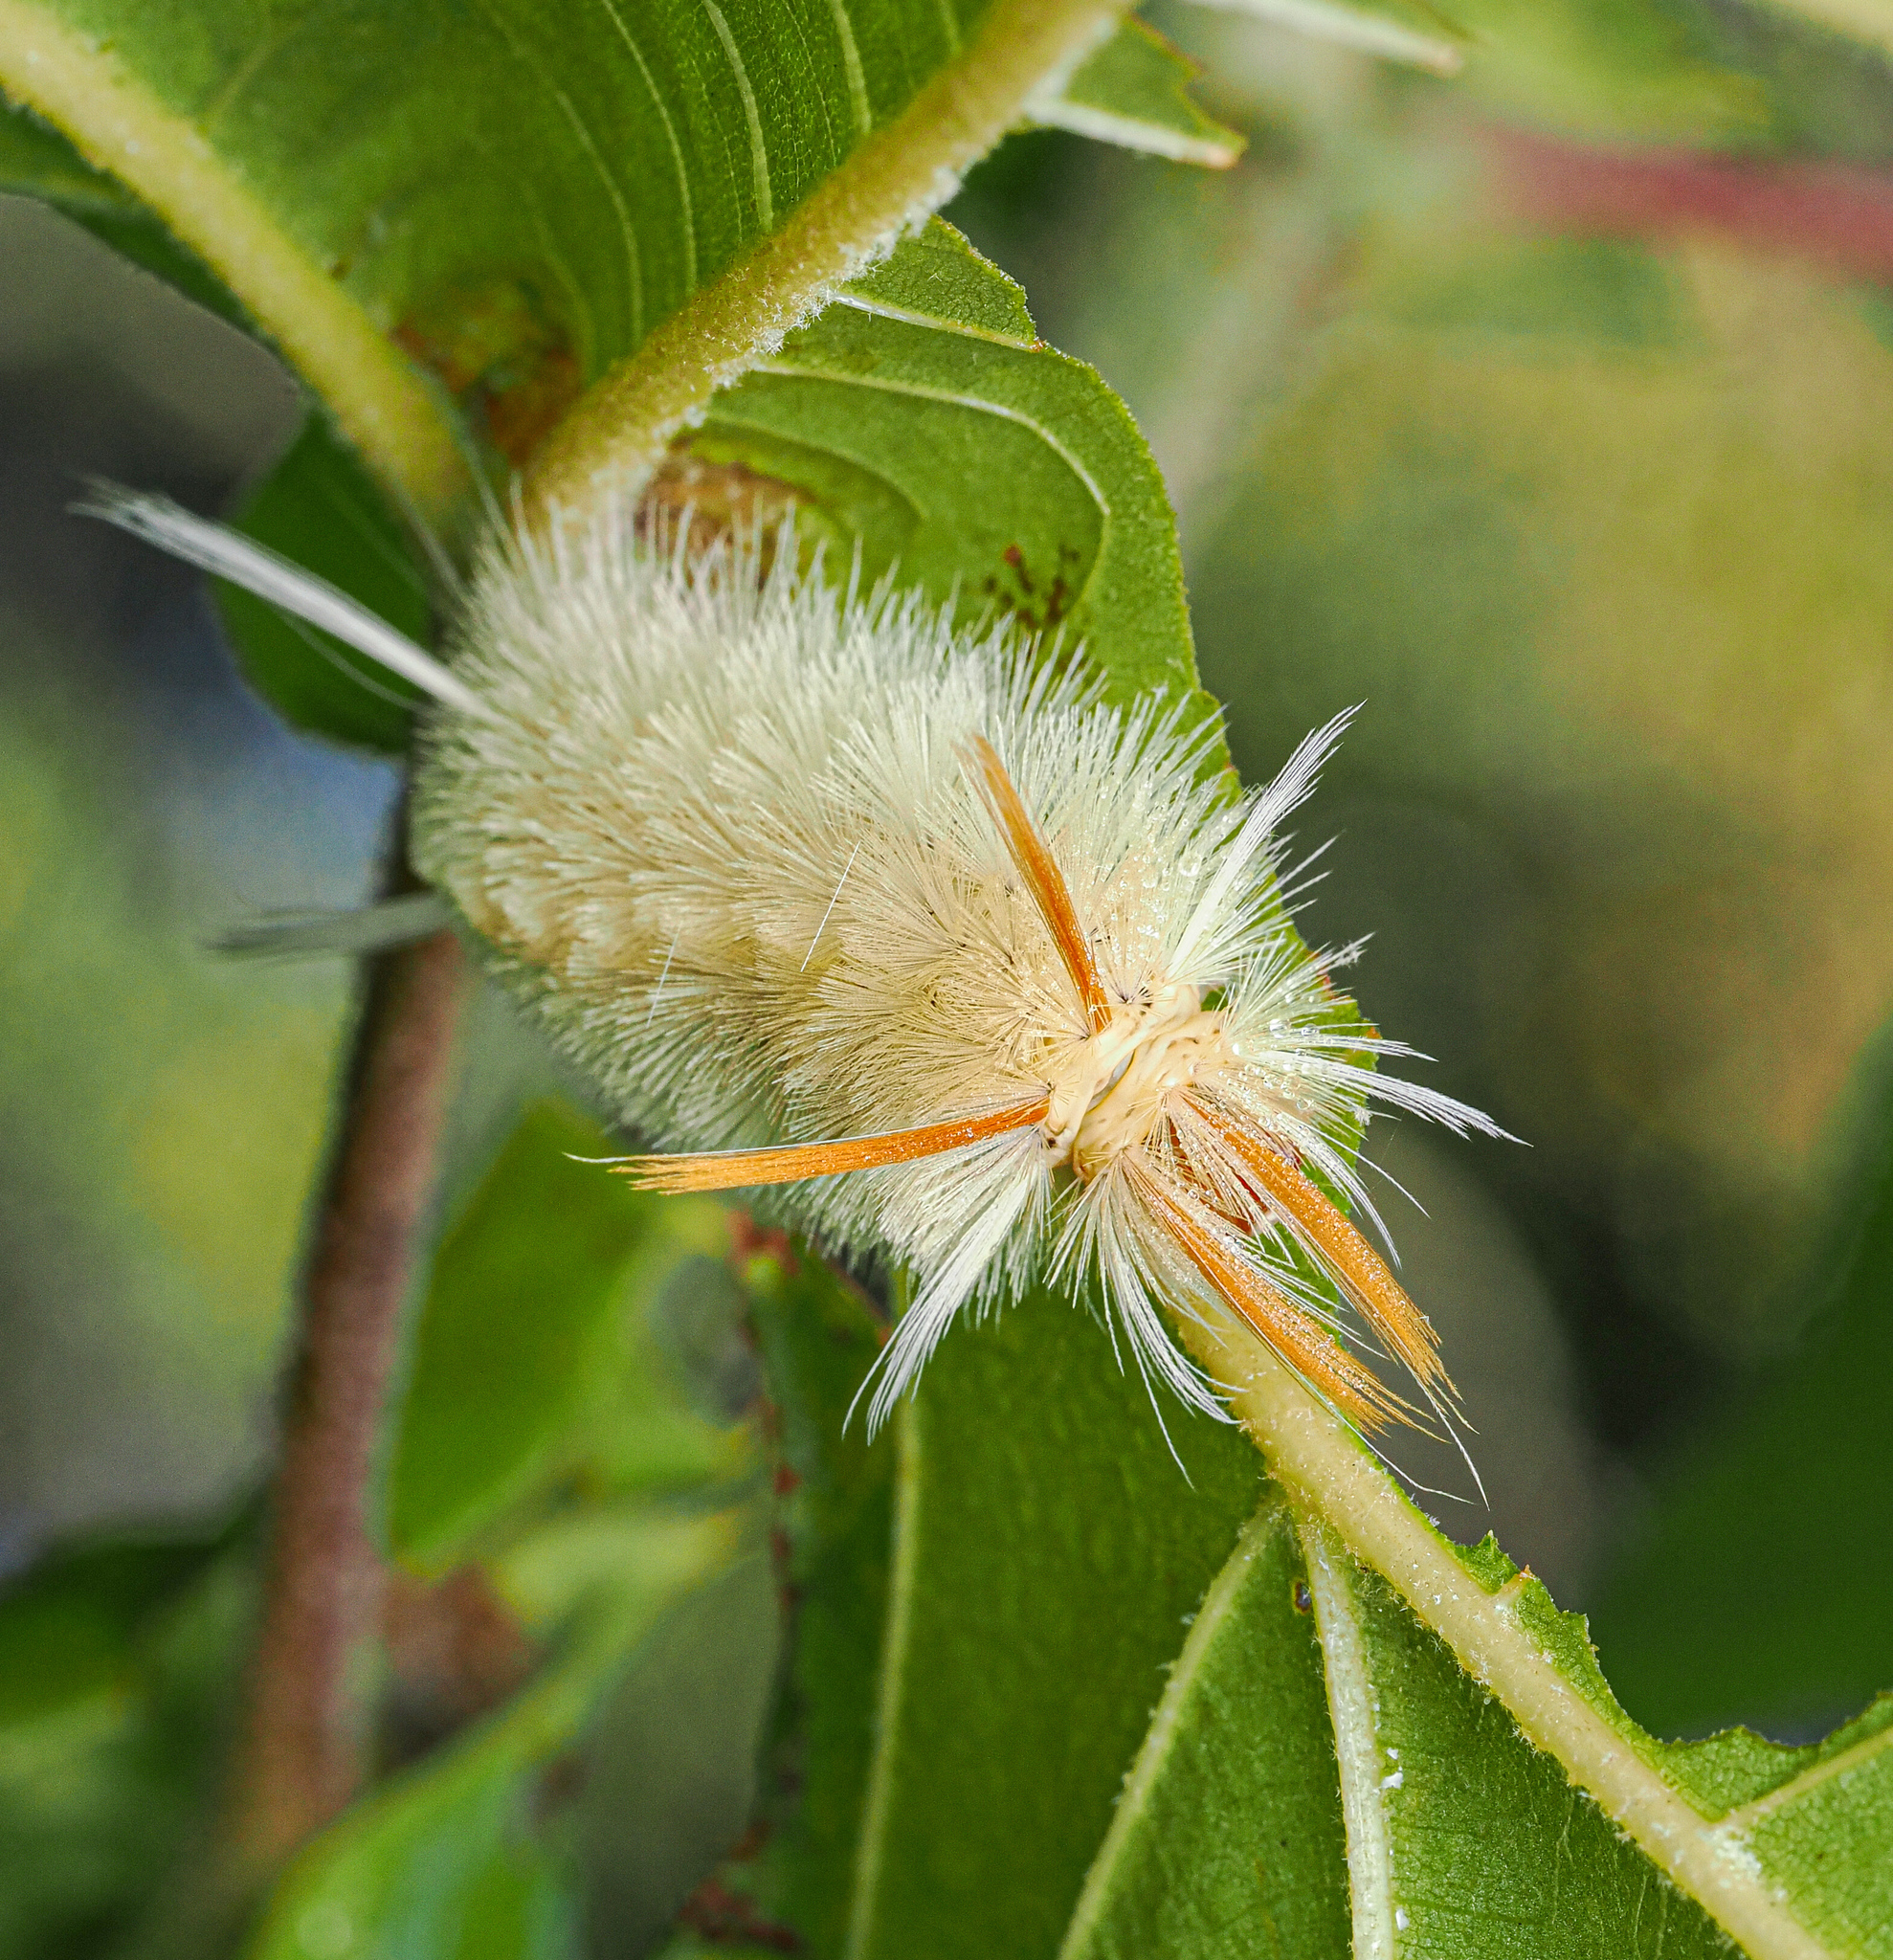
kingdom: Animalia
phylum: Arthropoda
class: Insecta
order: Lepidoptera
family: Erebidae
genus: Halysidota
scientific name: Halysidota harrisii
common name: Sycamore tussock moth
